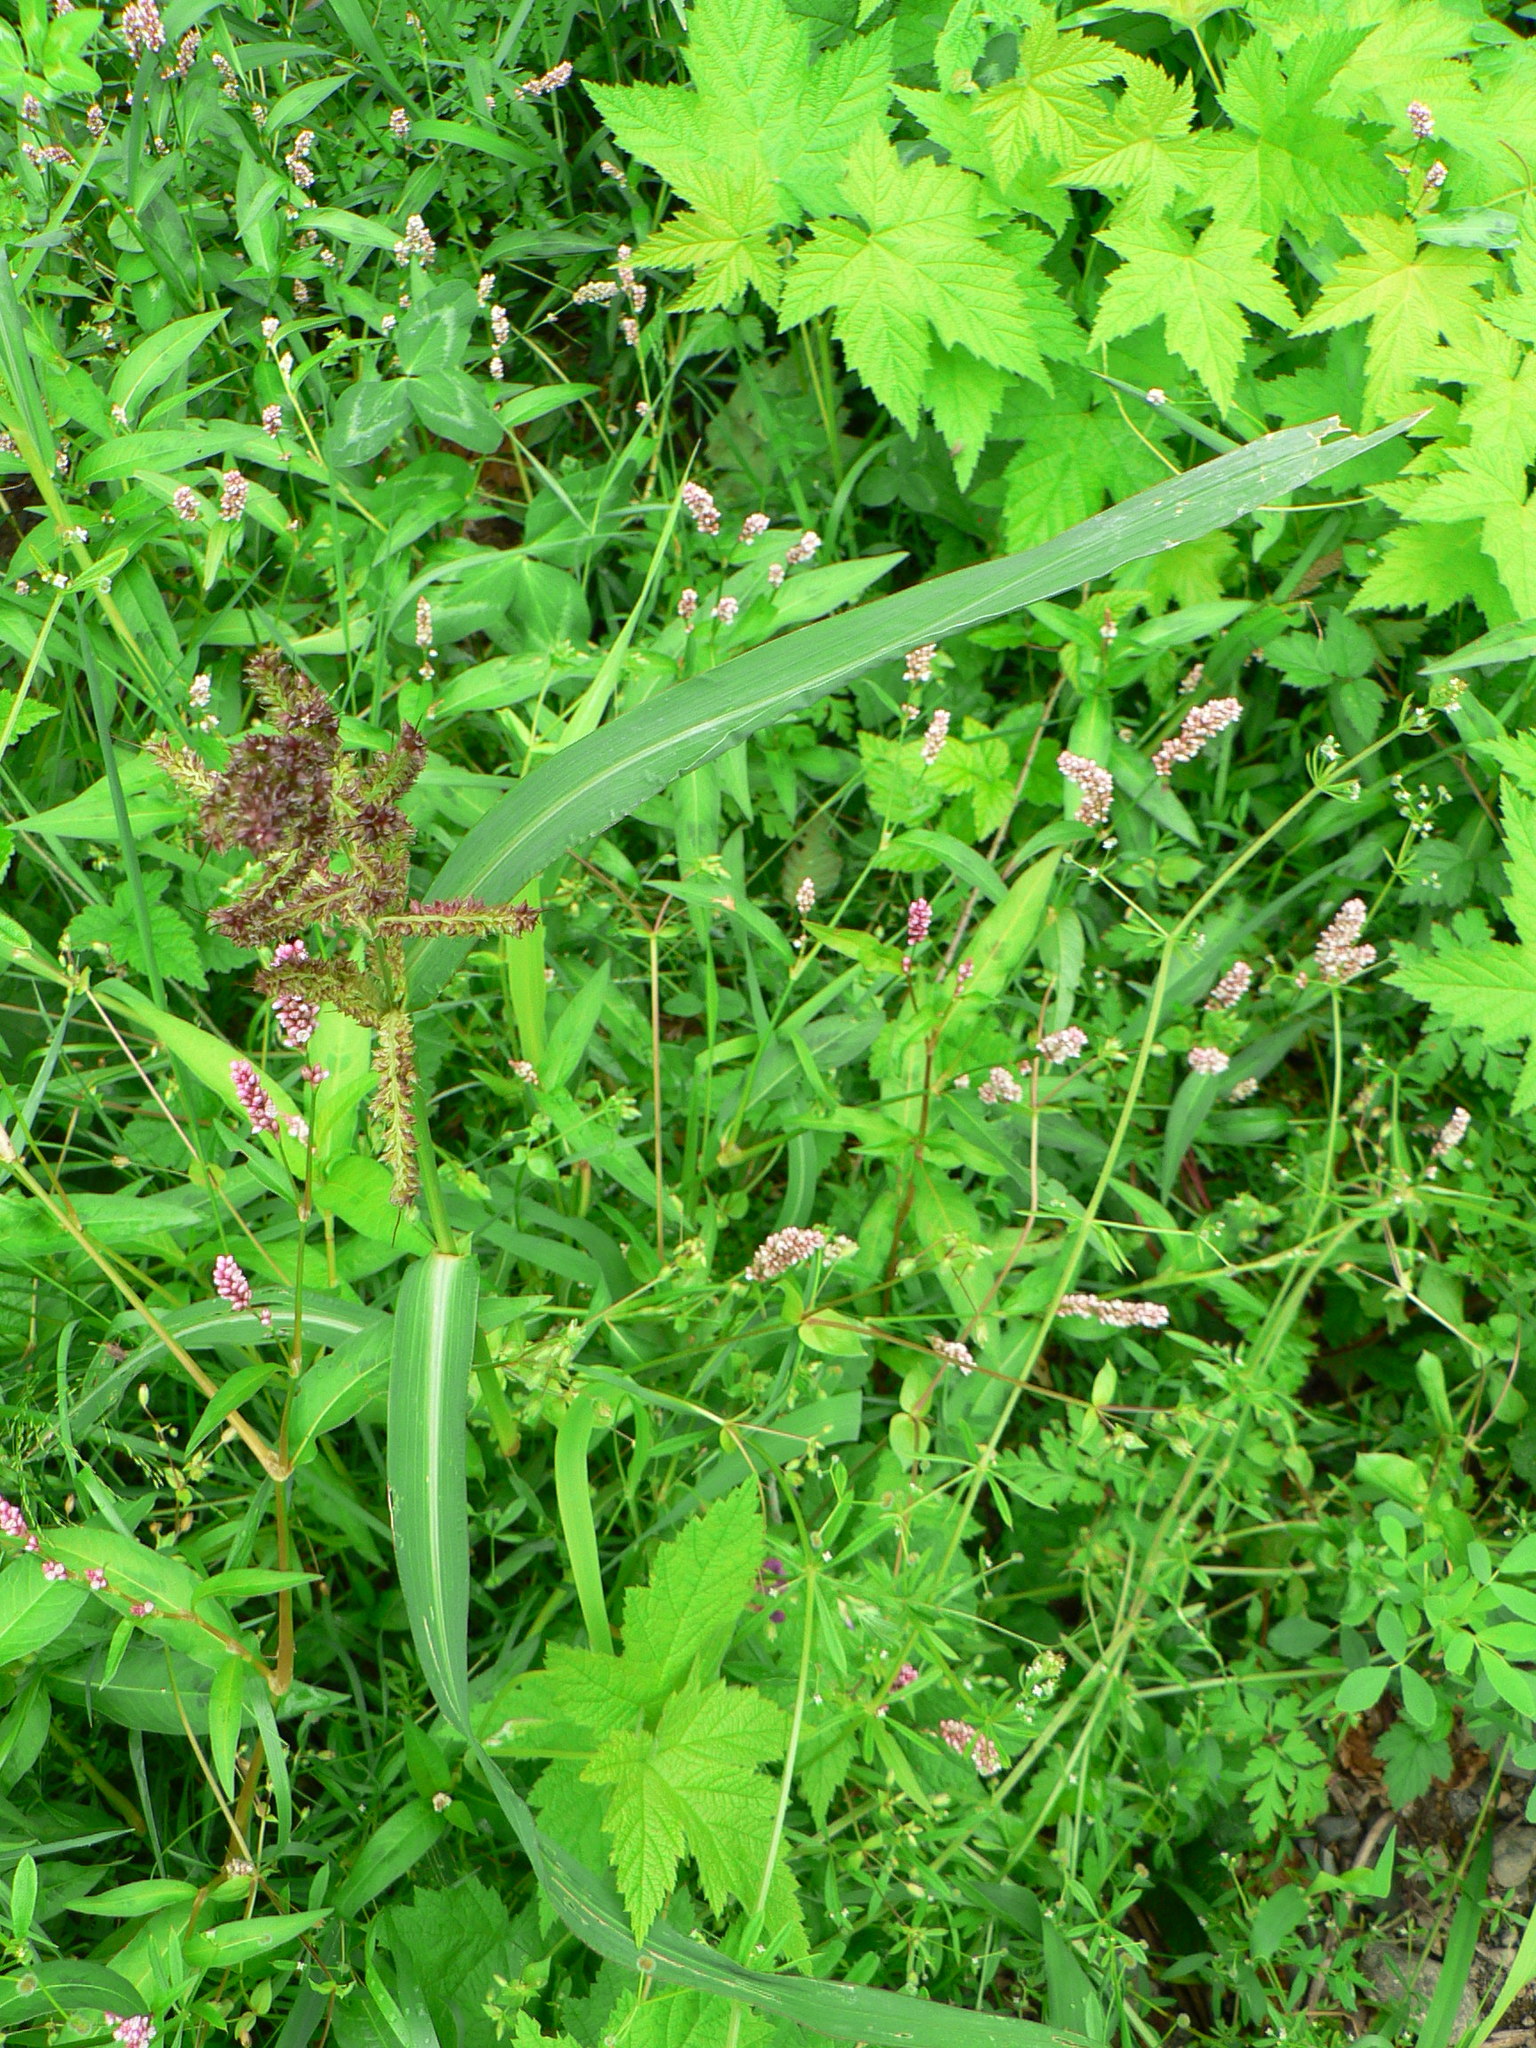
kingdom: Plantae
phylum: Tracheophyta
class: Liliopsida
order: Poales
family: Poaceae
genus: Echinochloa
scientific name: Echinochloa crus-galli
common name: Cockspur
